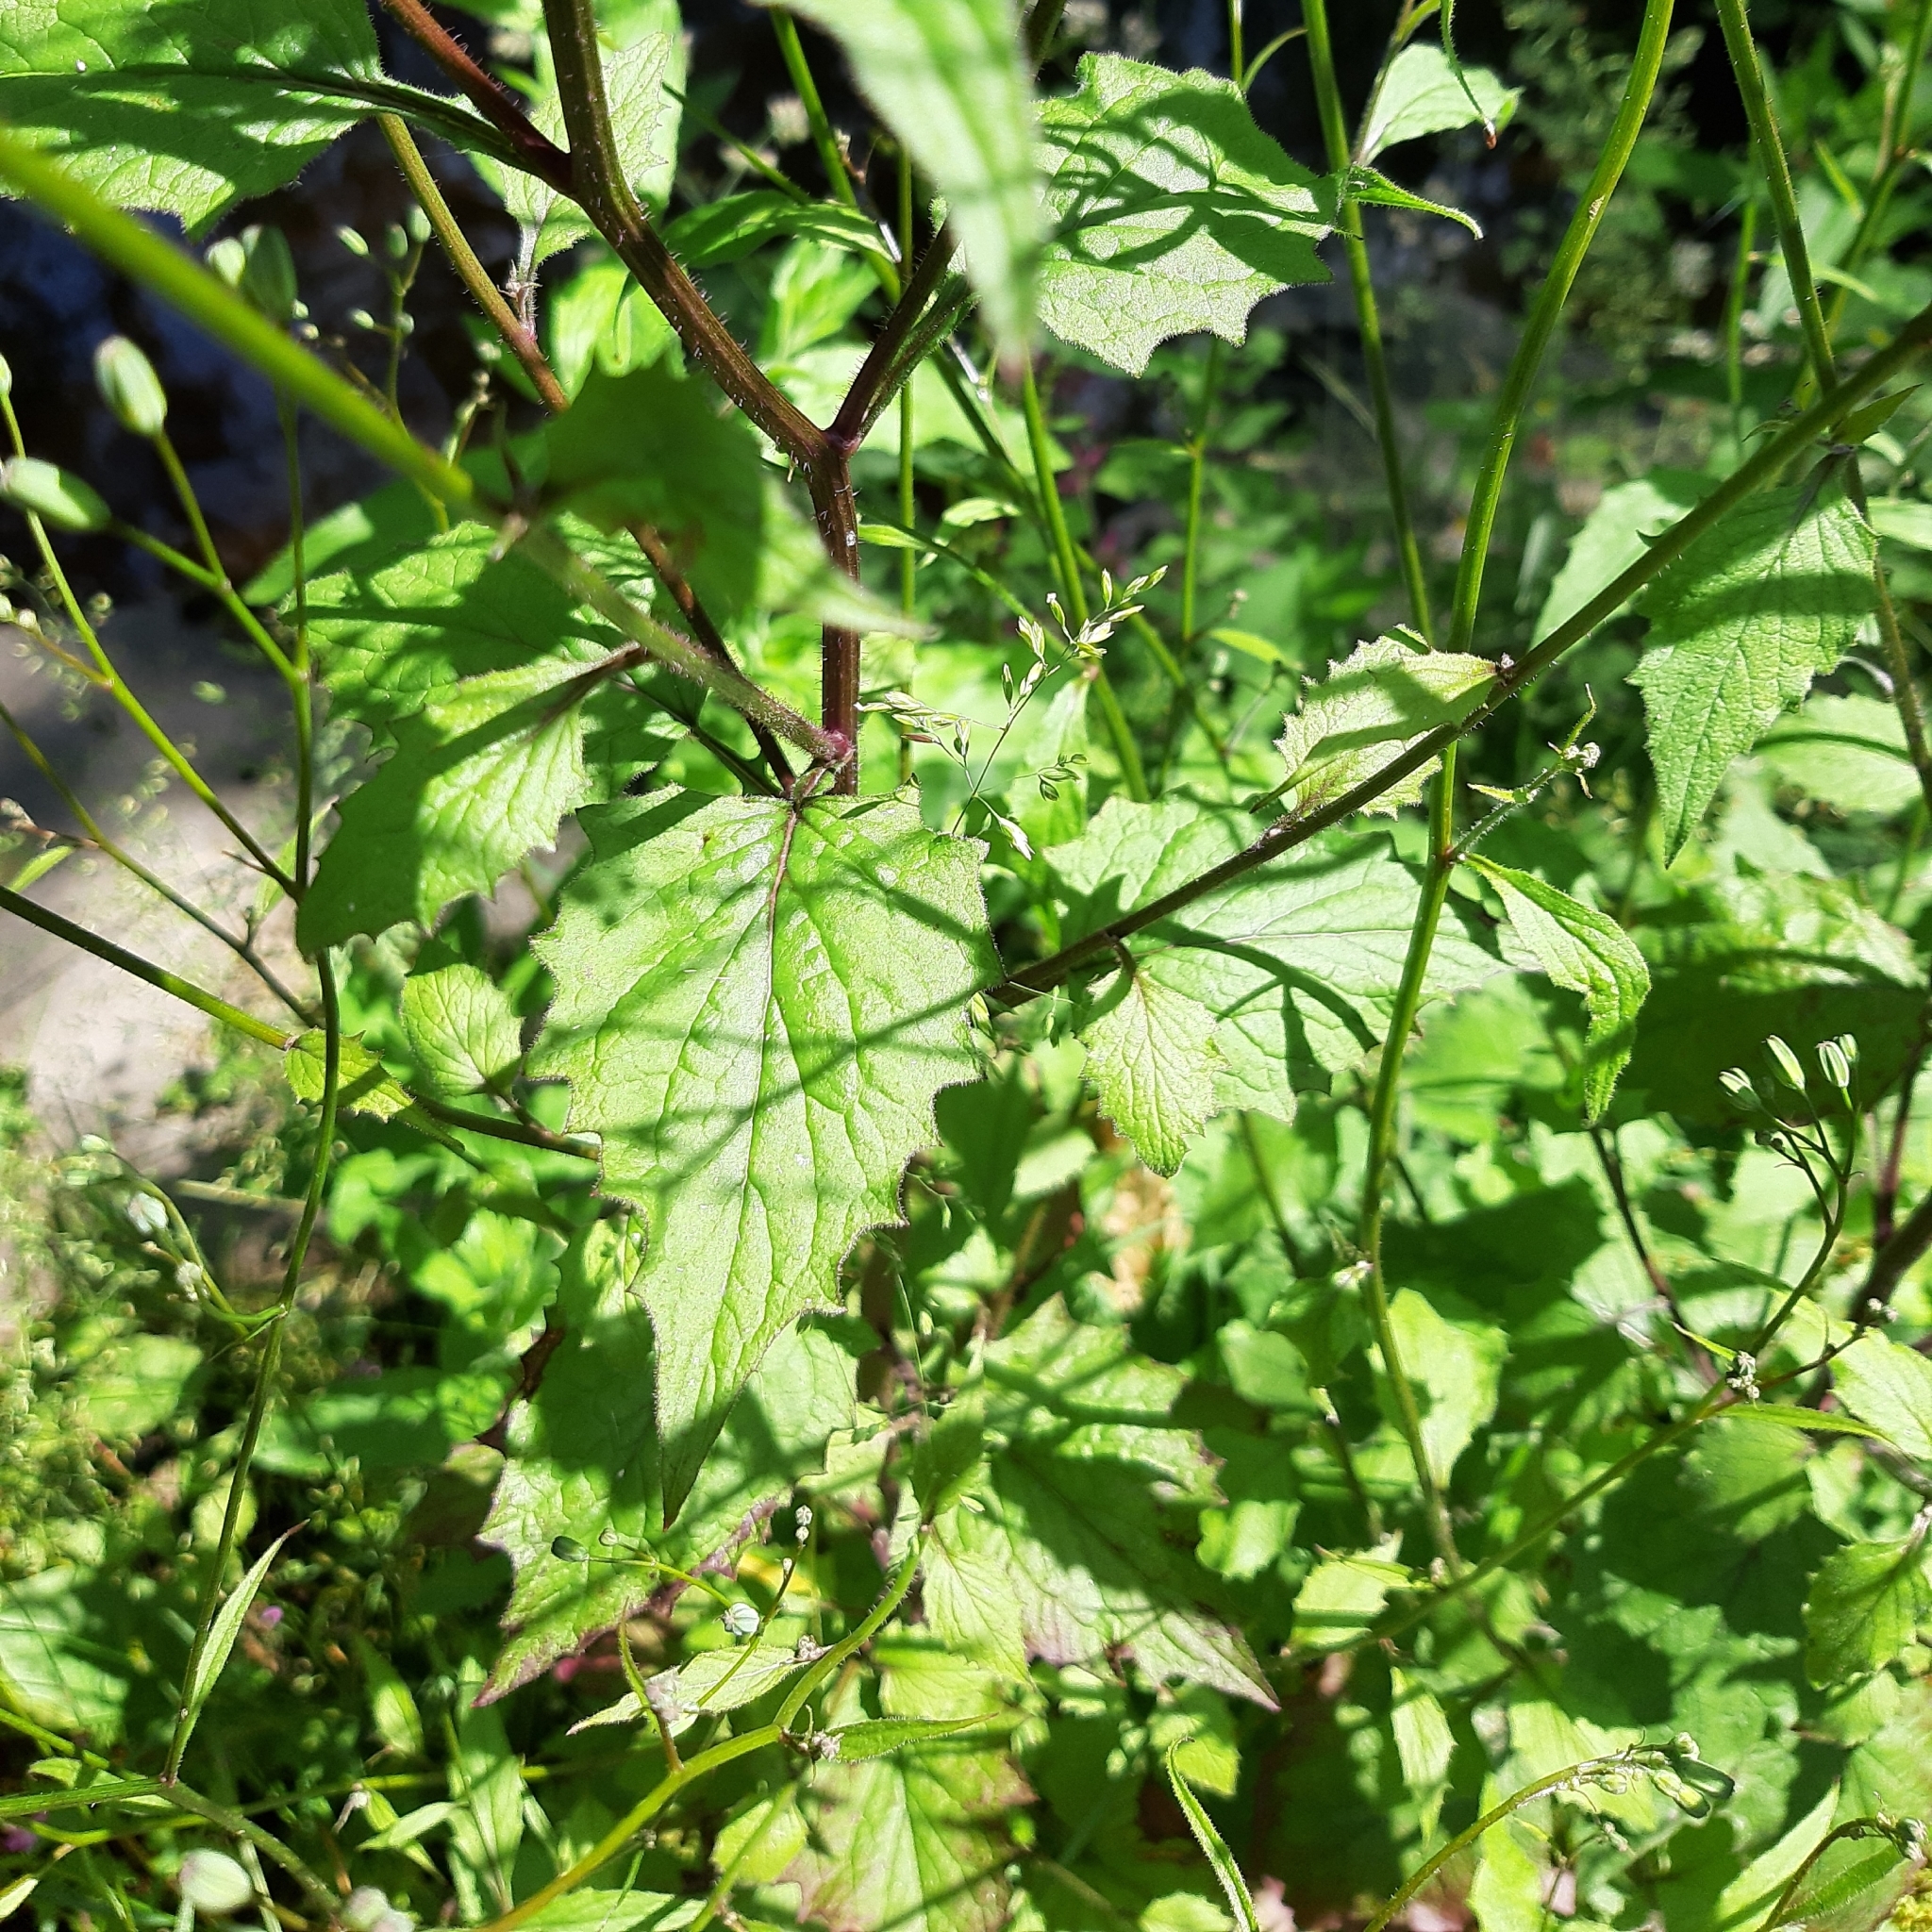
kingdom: Plantae
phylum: Tracheophyta
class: Magnoliopsida
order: Asterales
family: Asteraceae
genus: Lapsana
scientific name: Lapsana communis
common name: Nipplewort
